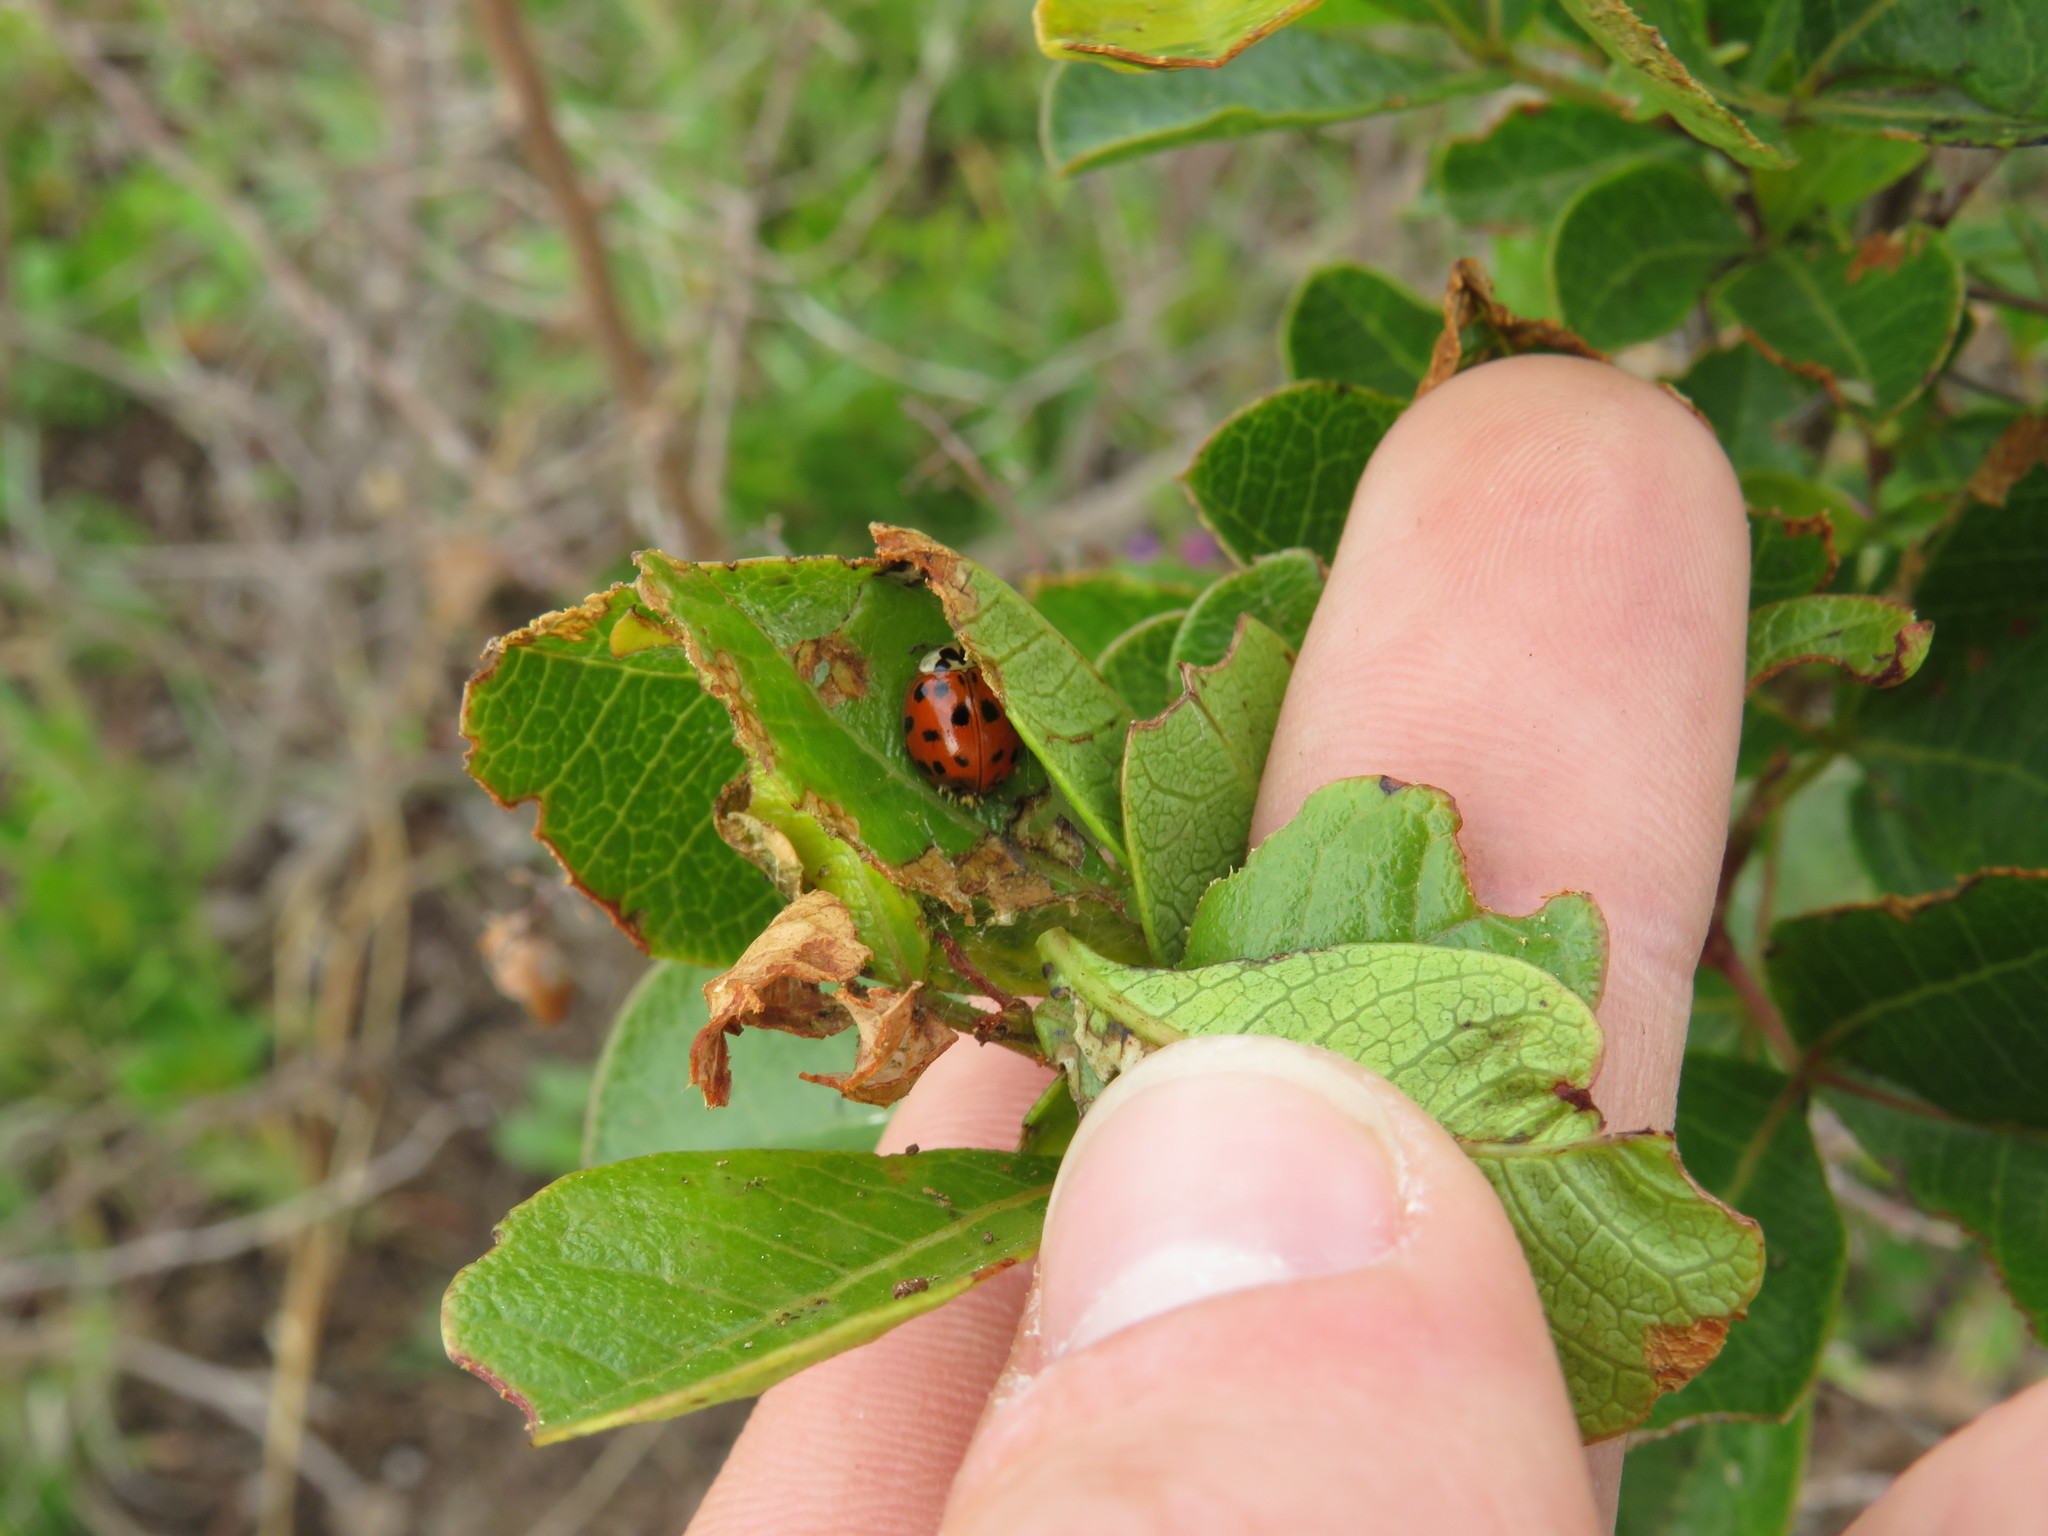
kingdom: Animalia
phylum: Arthropoda
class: Insecta
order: Coleoptera
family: Coccinellidae
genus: Harmonia
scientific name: Harmonia axyridis
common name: Harlequin ladybird
